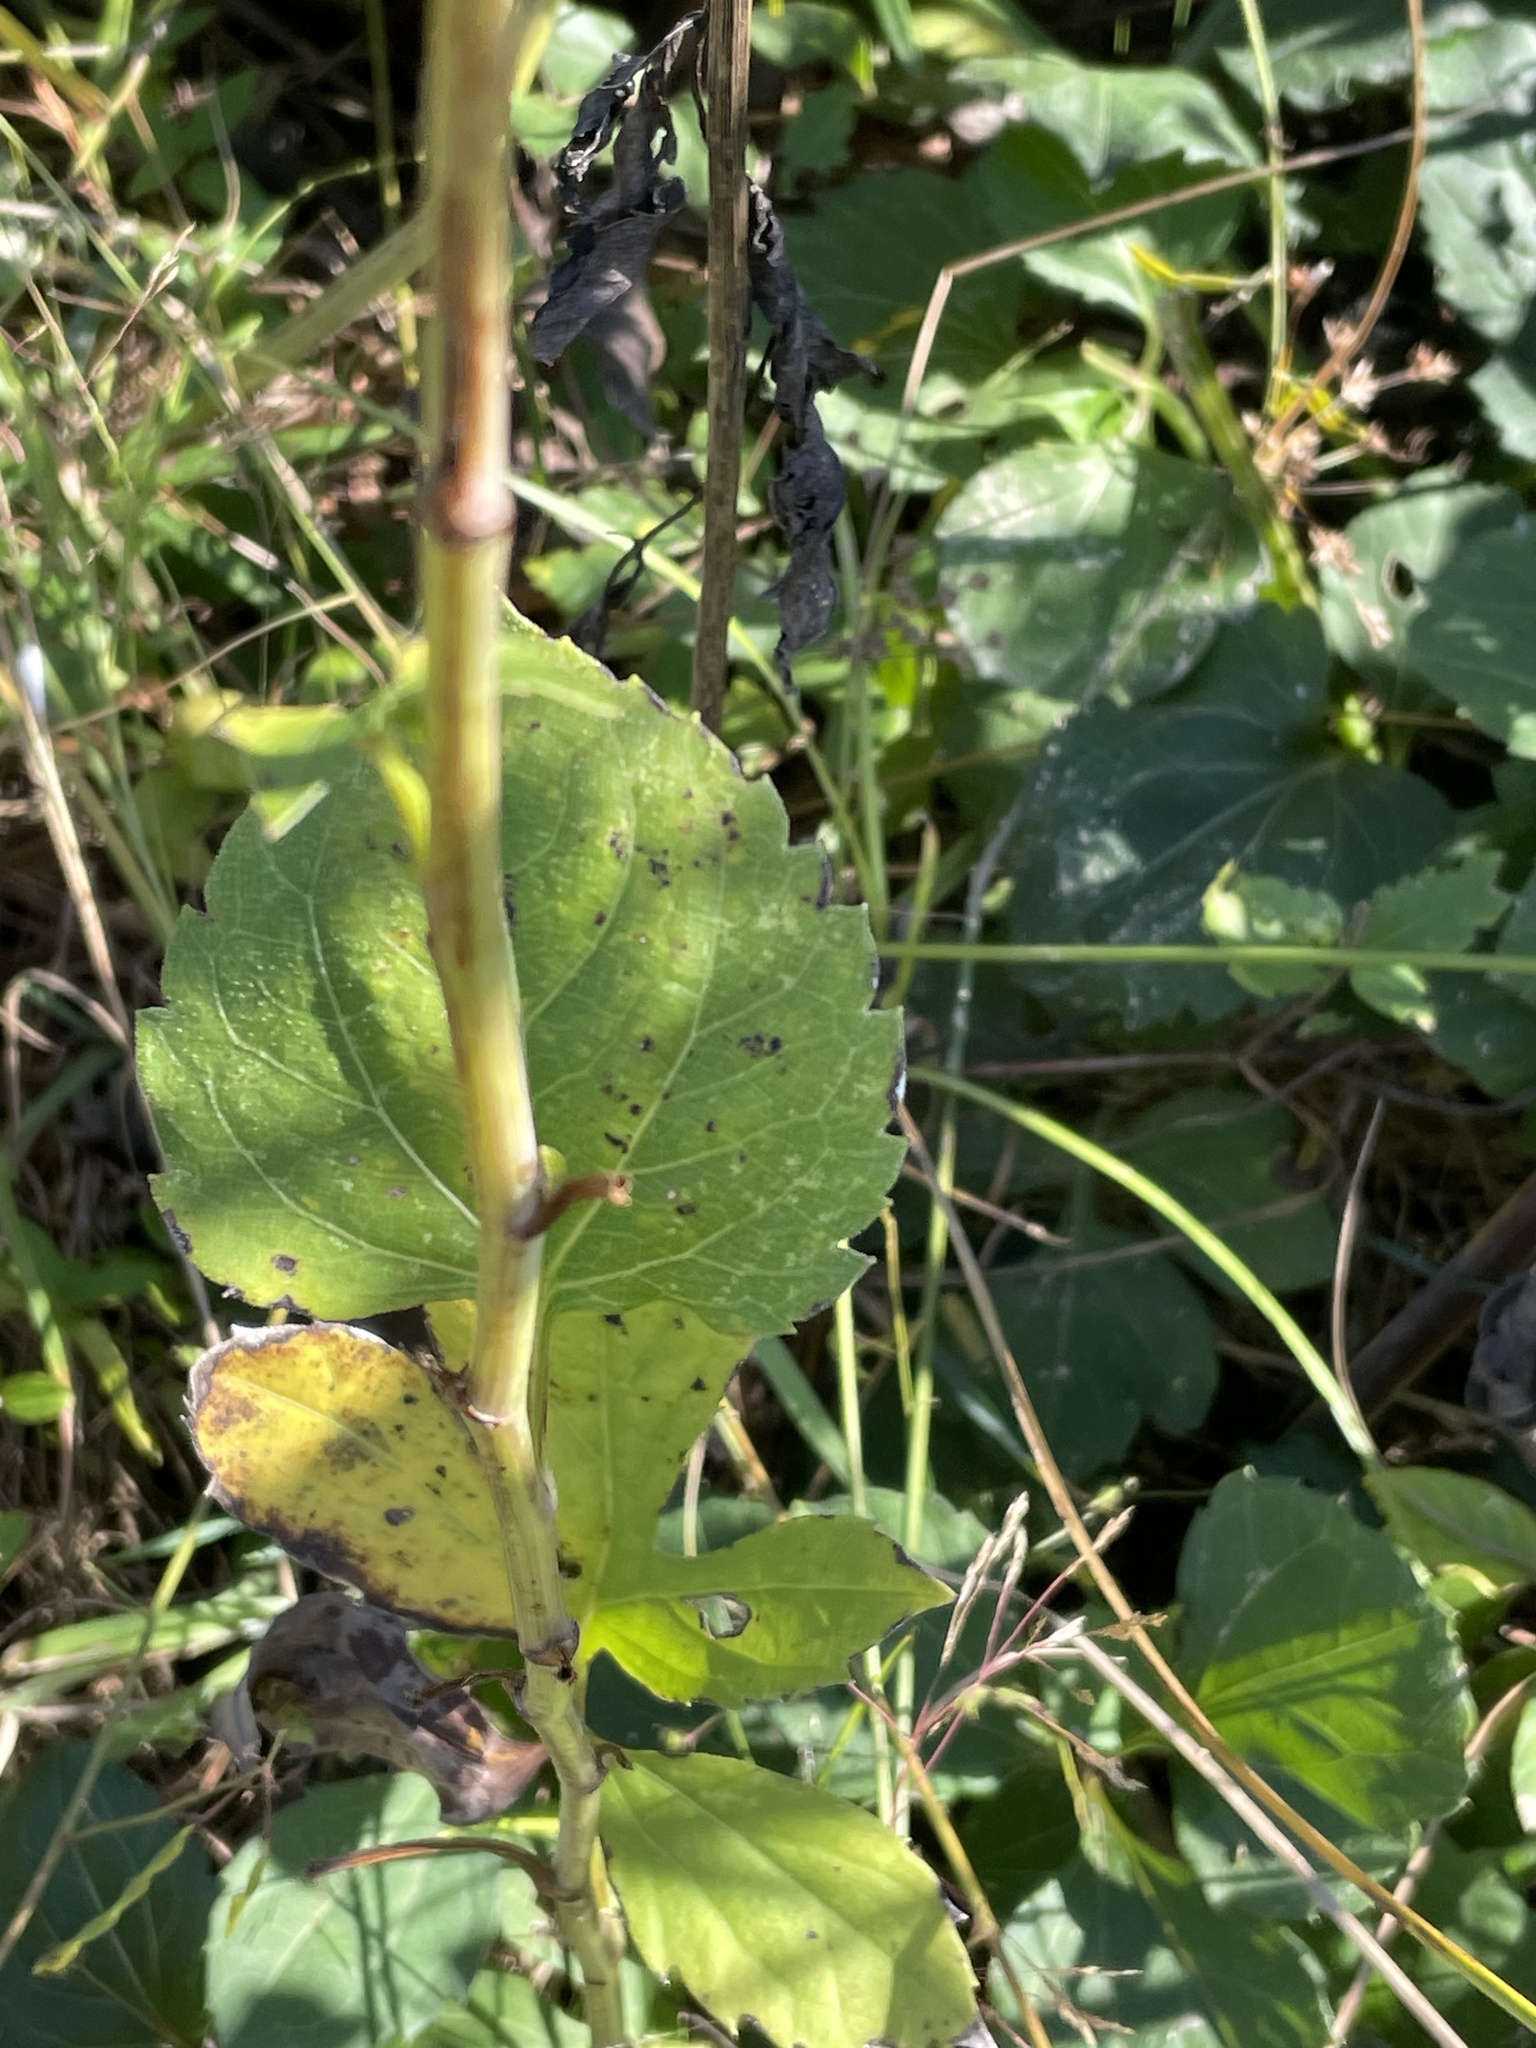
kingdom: Plantae
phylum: Tracheophyta
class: Magnoliopsida
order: Asterales
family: Asteraceae
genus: Rudbeckia
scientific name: Rudbeckia laciniata
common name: Coneflower
